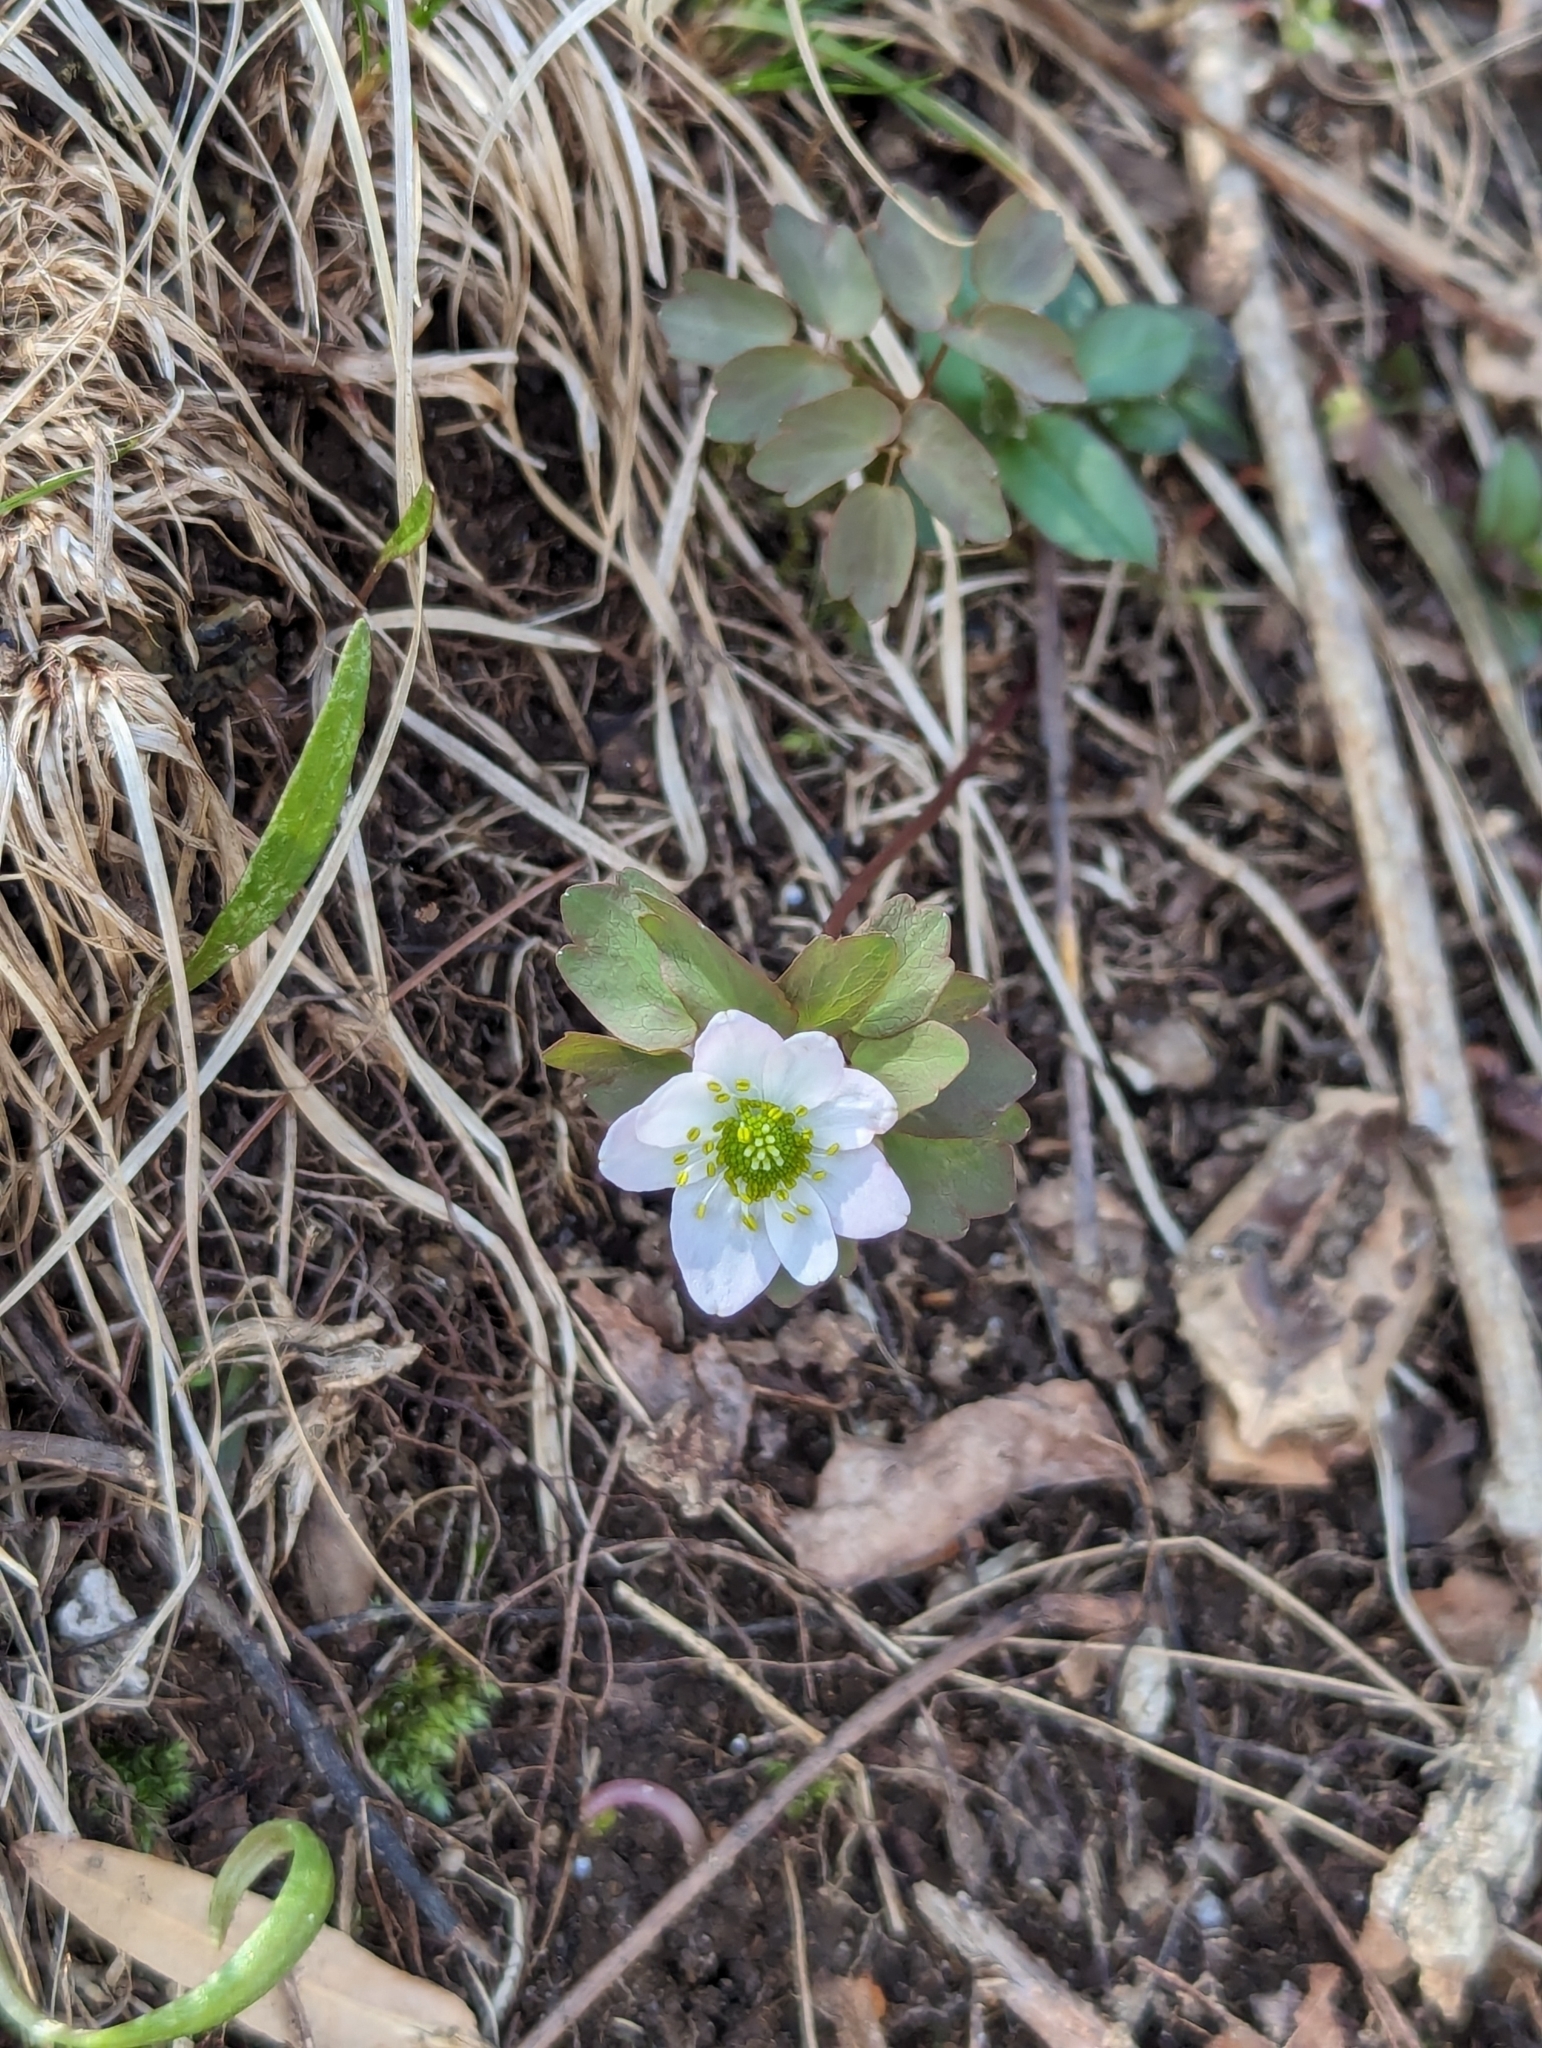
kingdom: Plantae
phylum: Tracheophyta
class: Magnoliopsida
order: Ranunculales
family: Ranunculaceae
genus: Thalictrum
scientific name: Thalictrum thalictroides
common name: Rue-anemone
